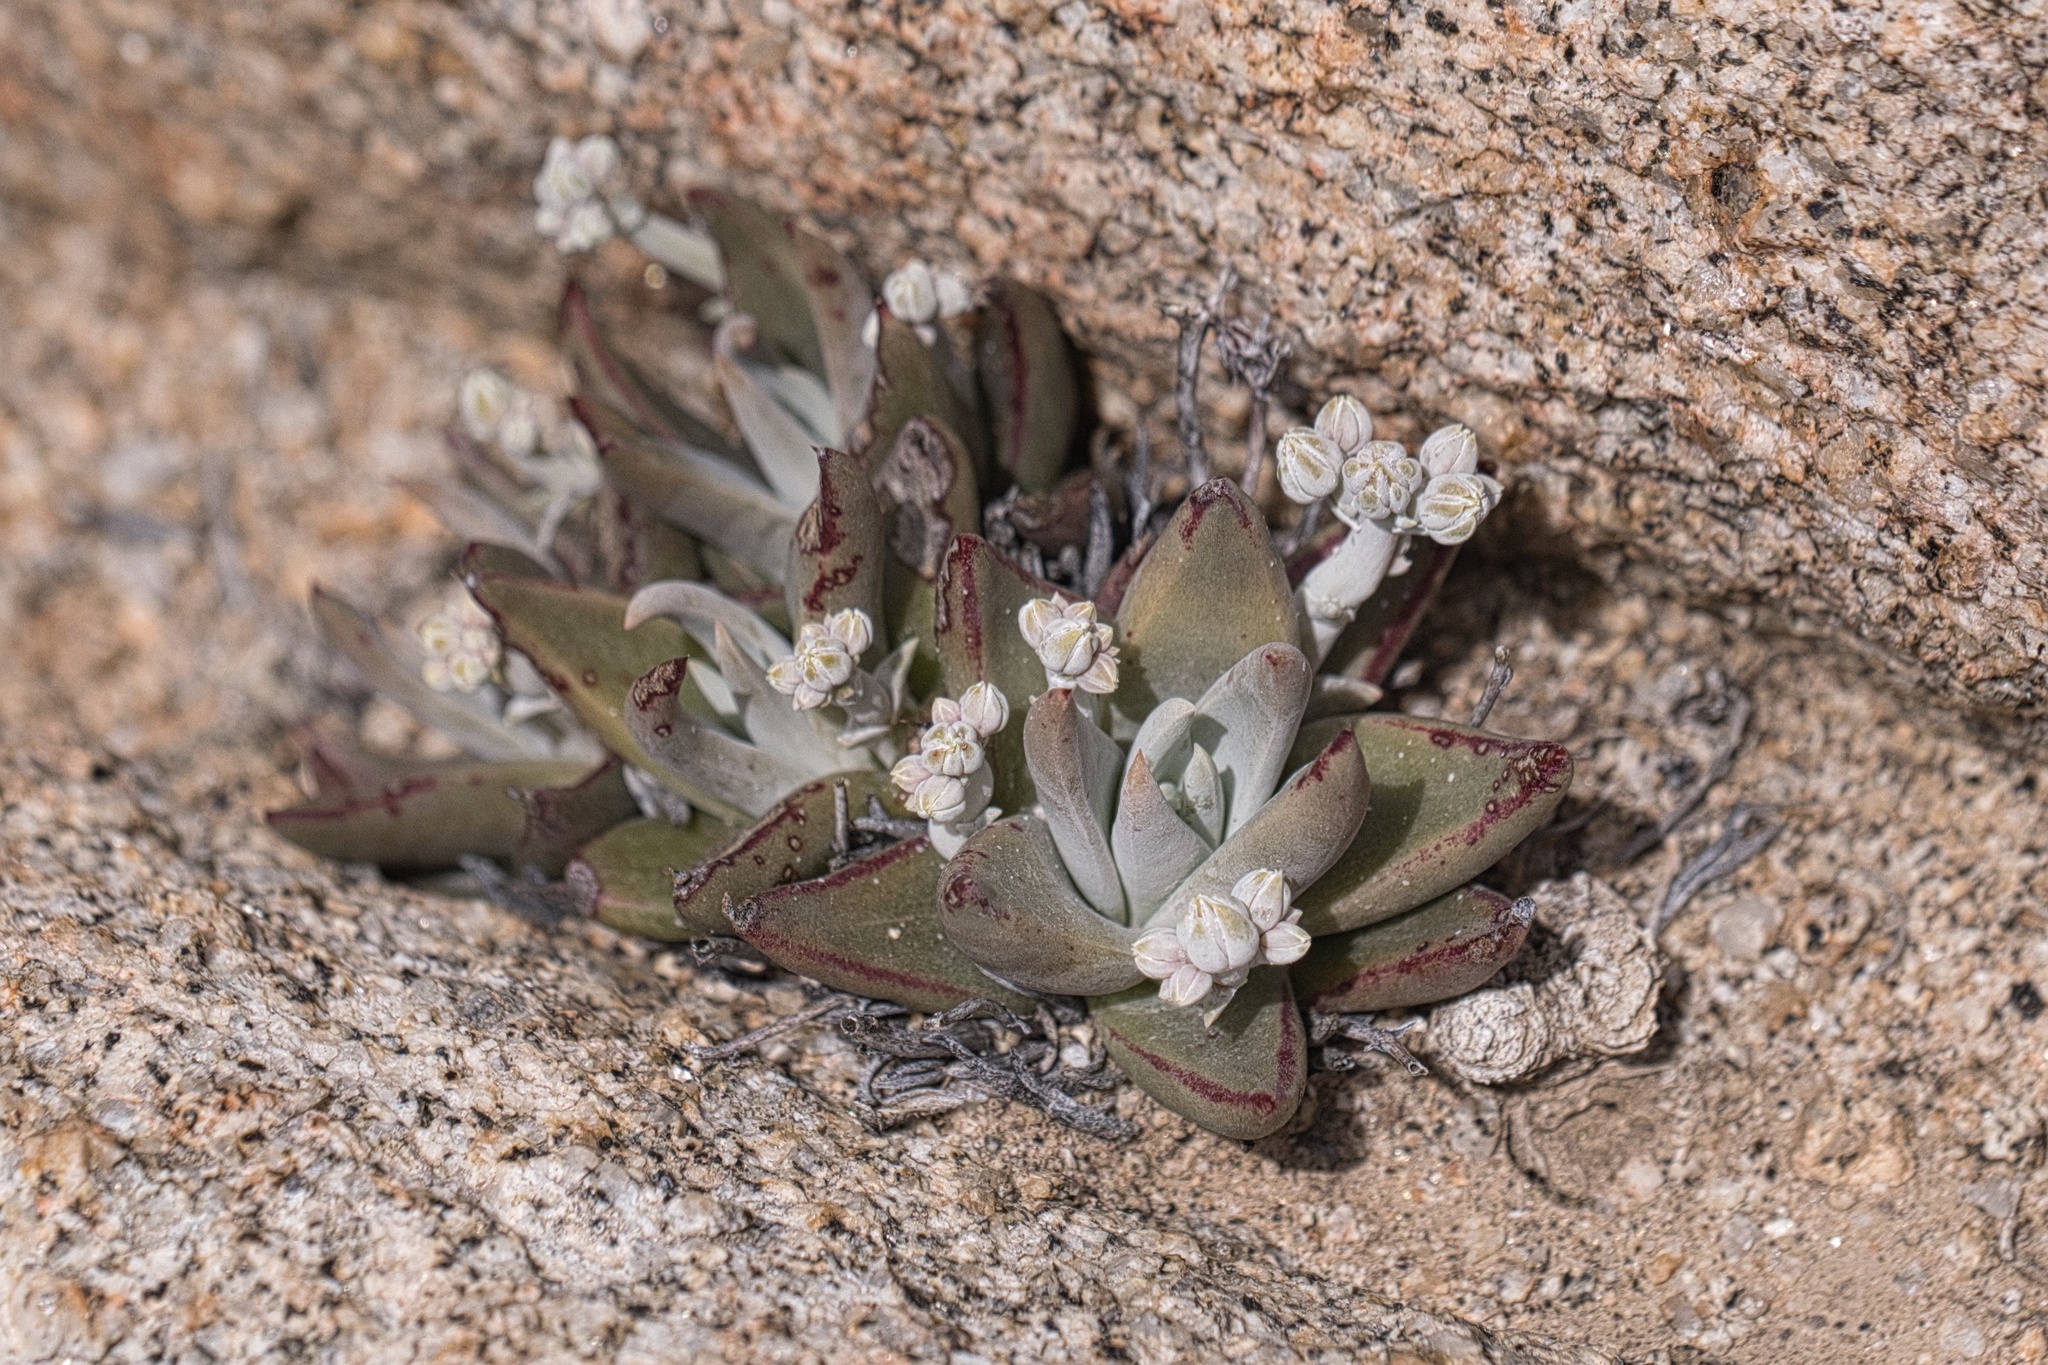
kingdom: Plantae
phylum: Tracheophyta
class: Magnoliopsida
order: Saxifragales
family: Crassulaceae
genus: Dudleya
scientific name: Dudleya abramsii
